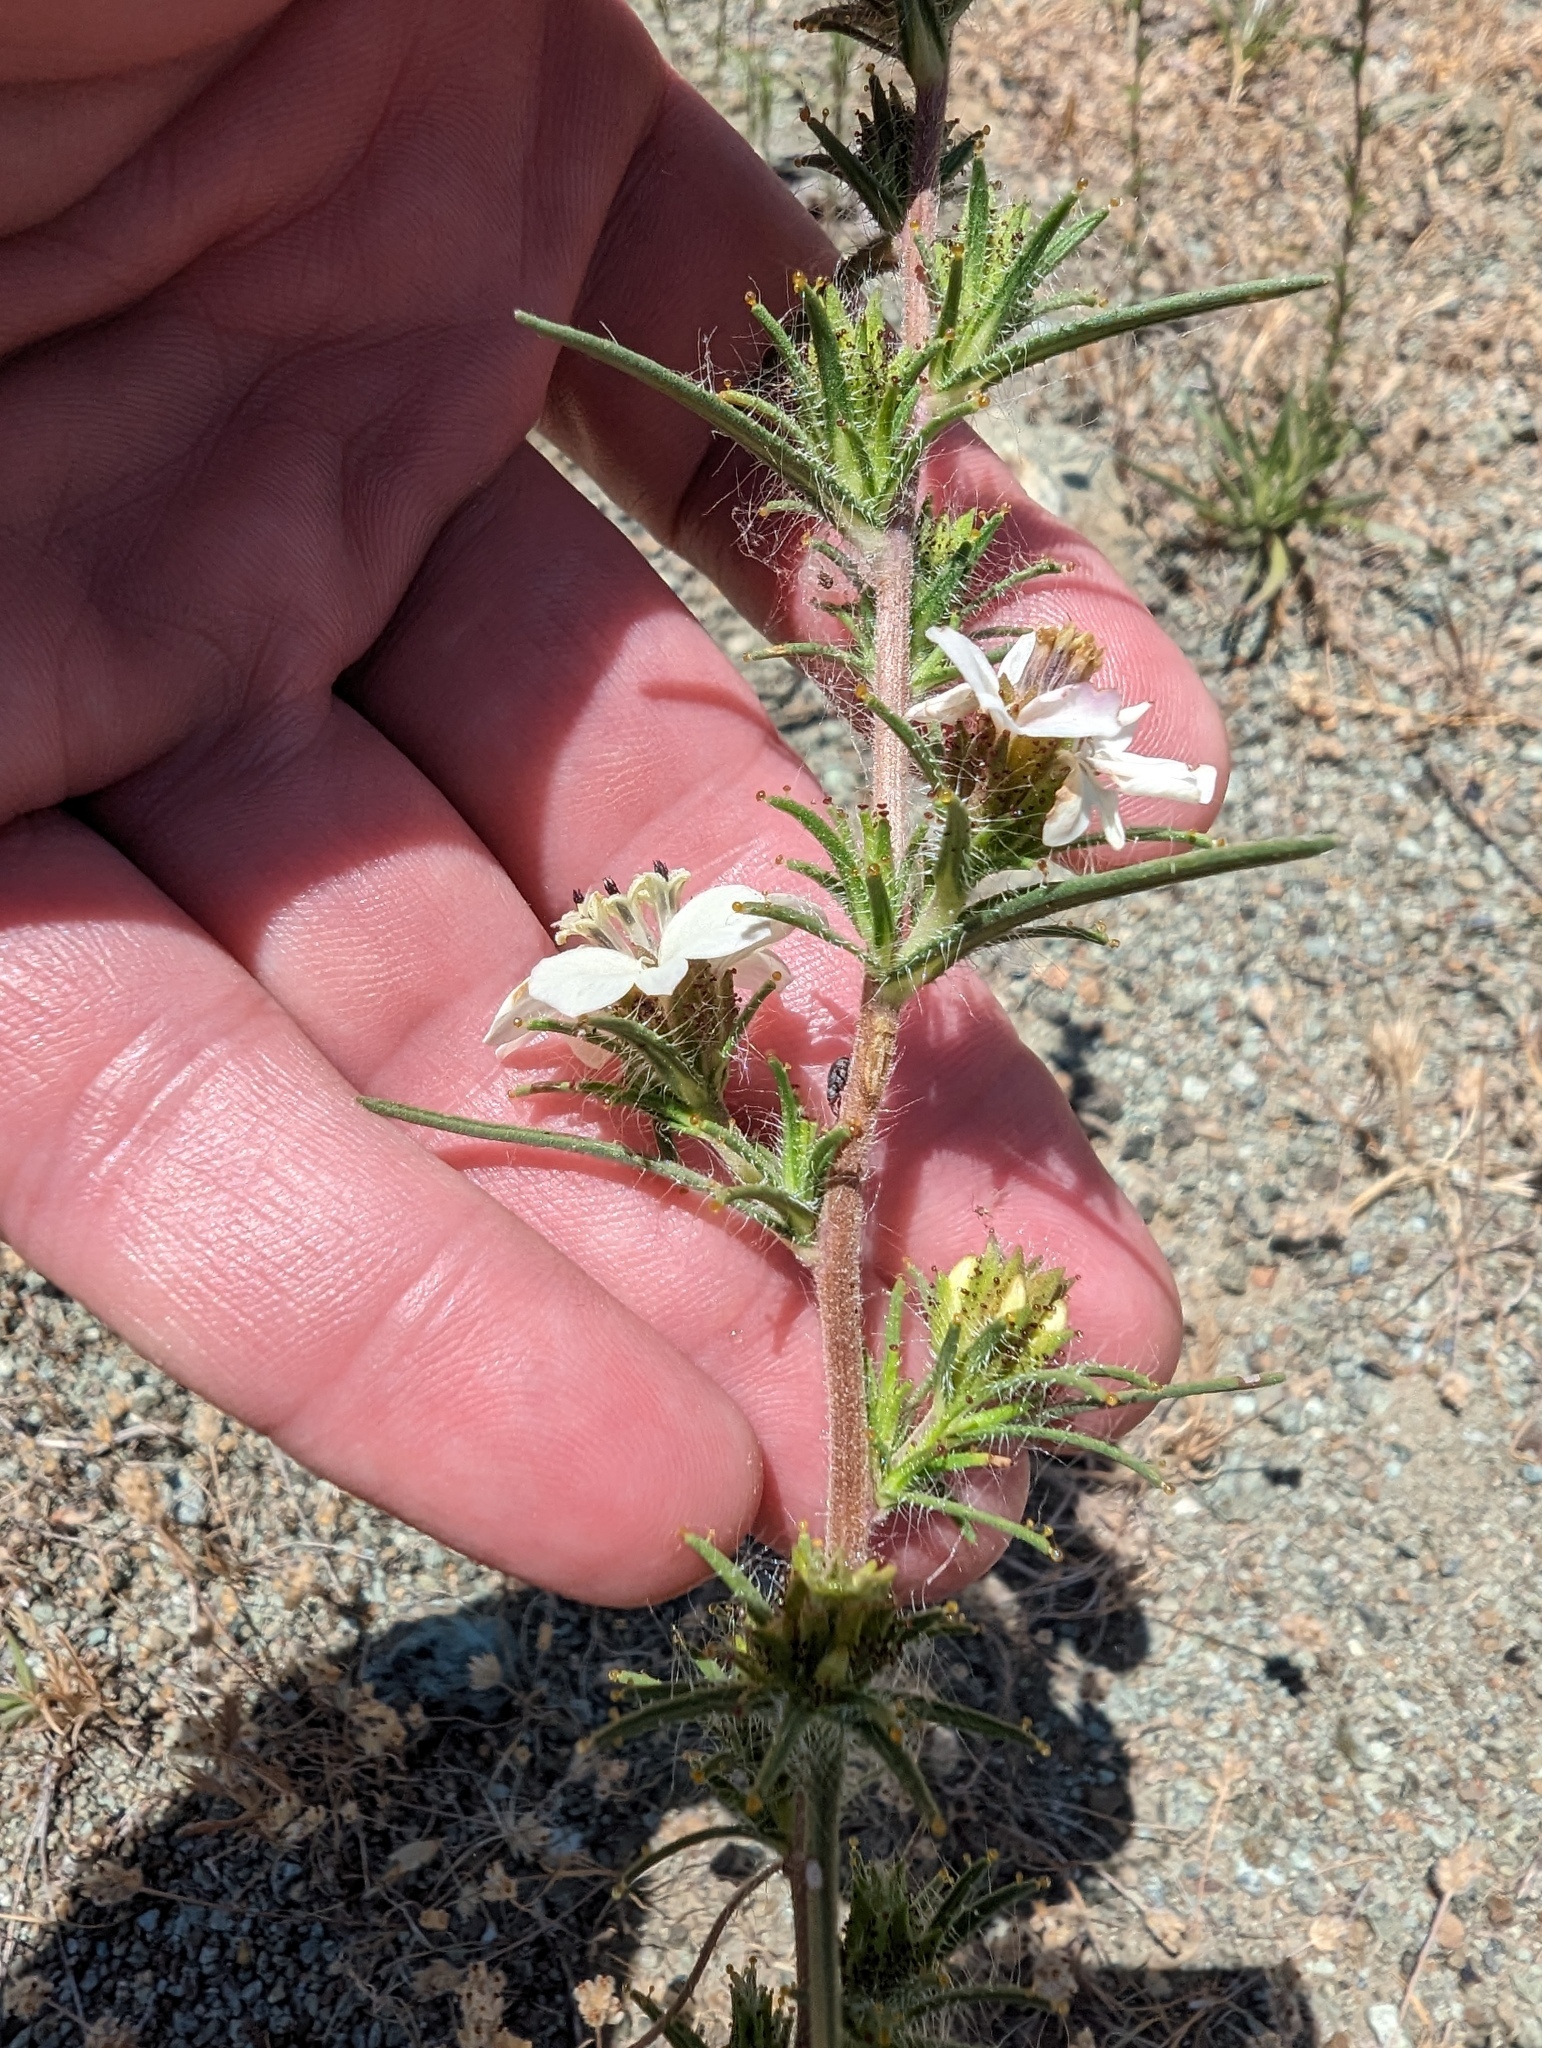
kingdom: Plantae
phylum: Tracheophyta
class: Magnoliopsida
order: Asterales
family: Asteraceae
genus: Calycadenia
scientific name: Calycadenia multiglandulosa
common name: Sticky calycadenia
